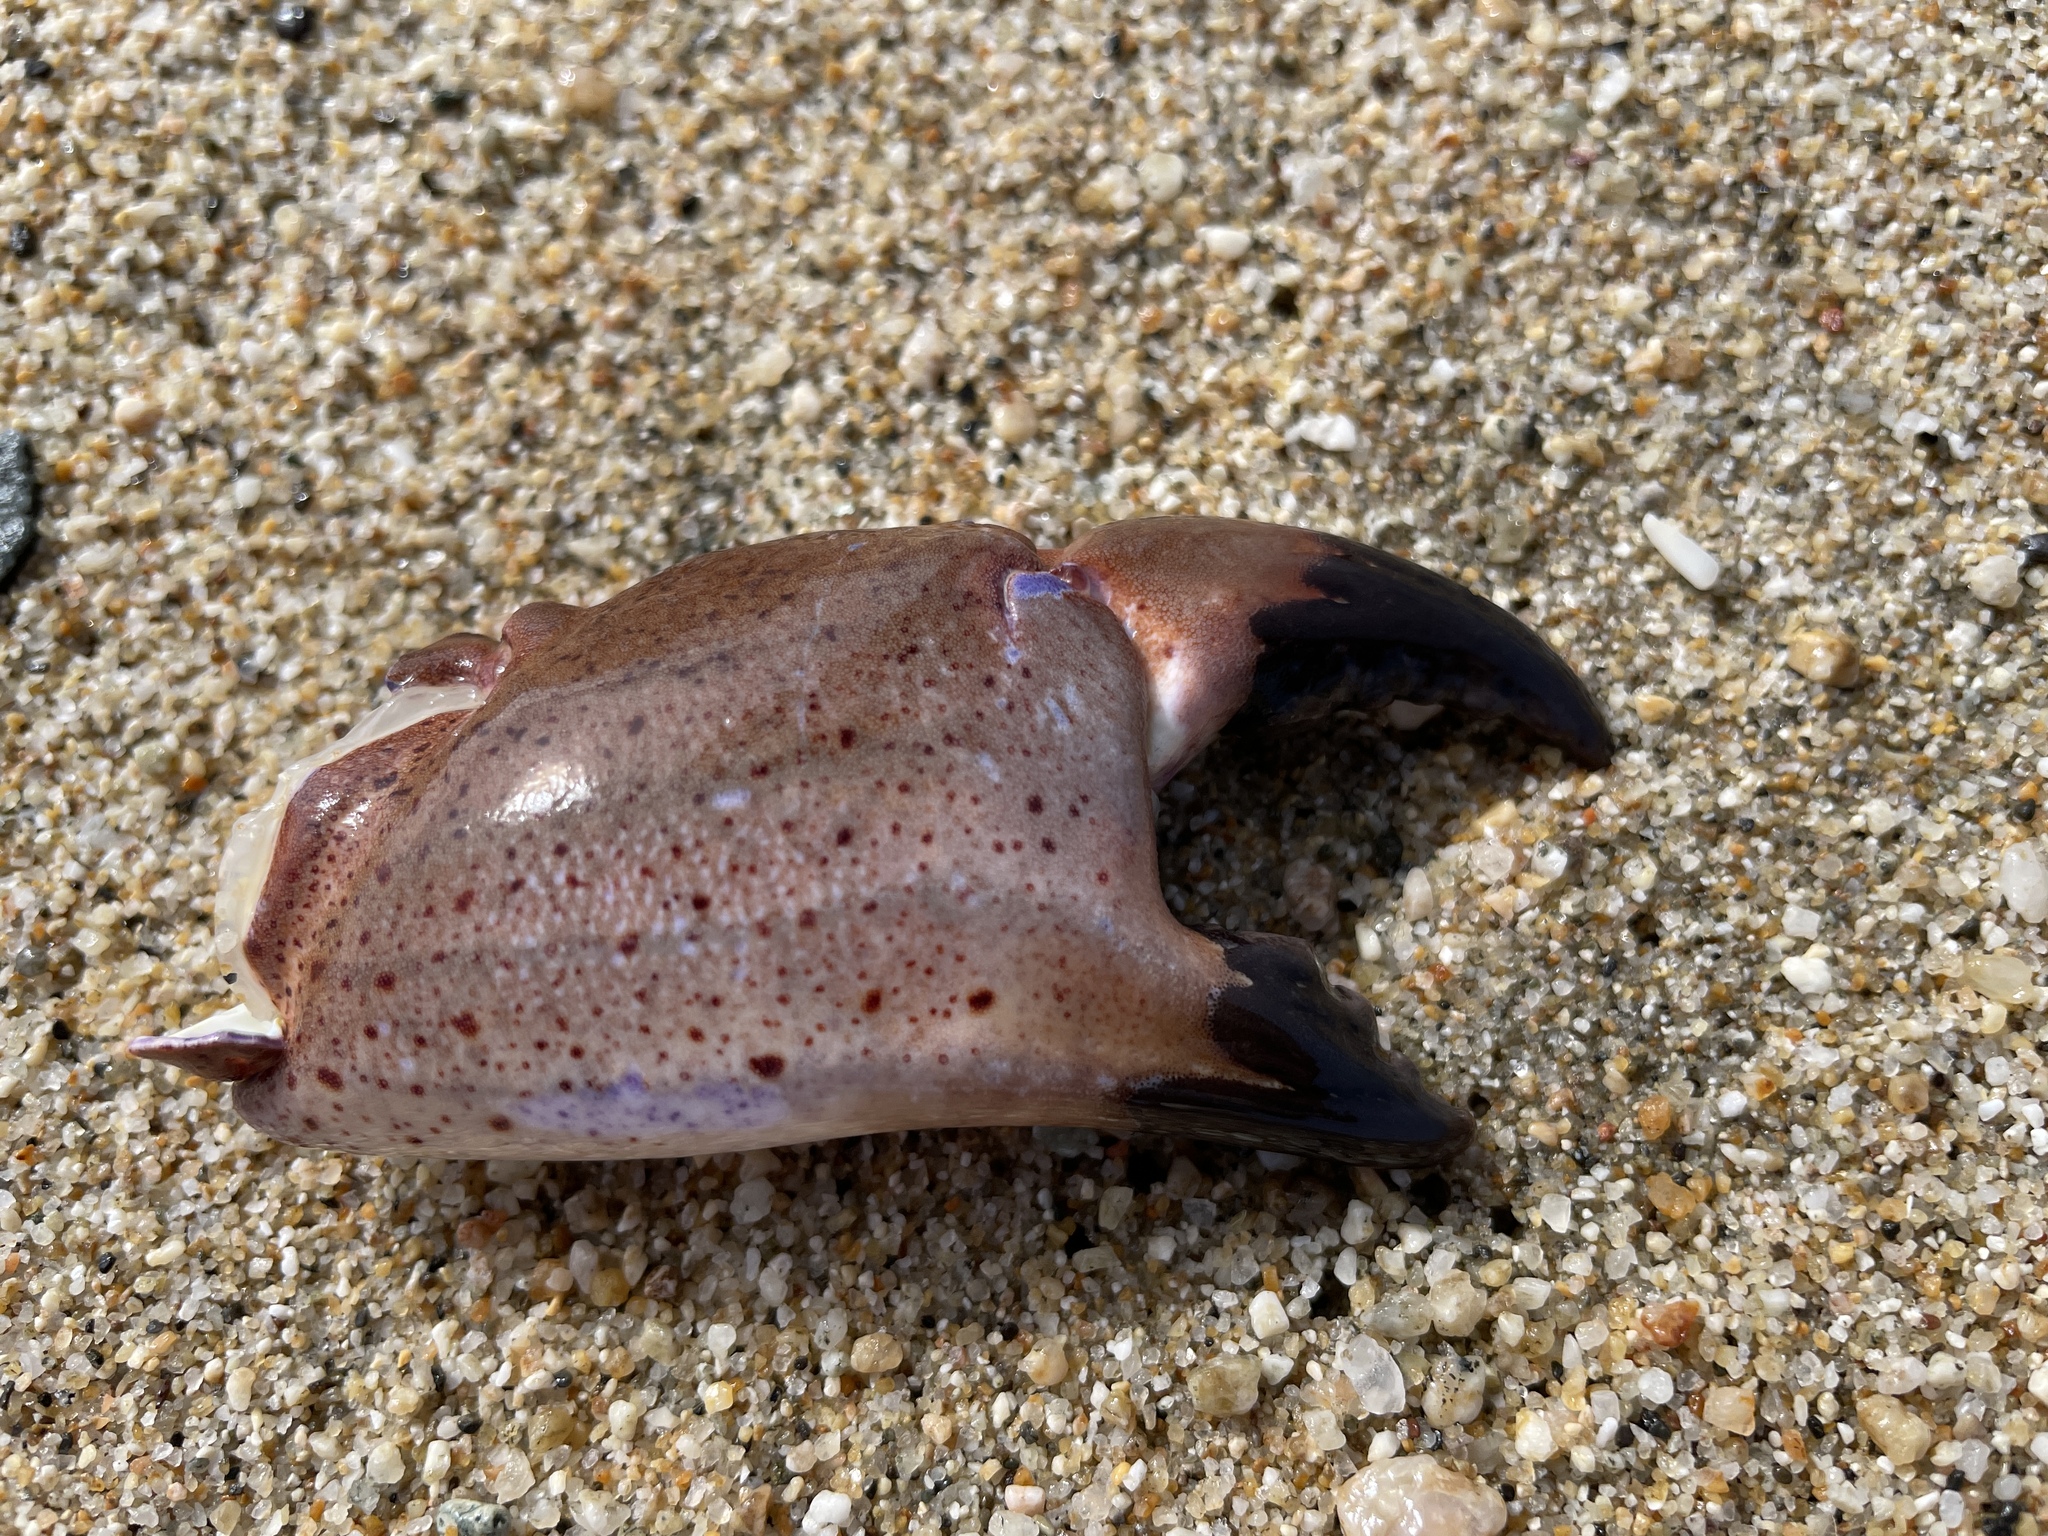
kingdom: Animalia
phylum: Arthropoda
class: Malacostraca
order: Decapoda
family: Cancridae
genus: Romaleon
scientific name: Romaleon antennarium
